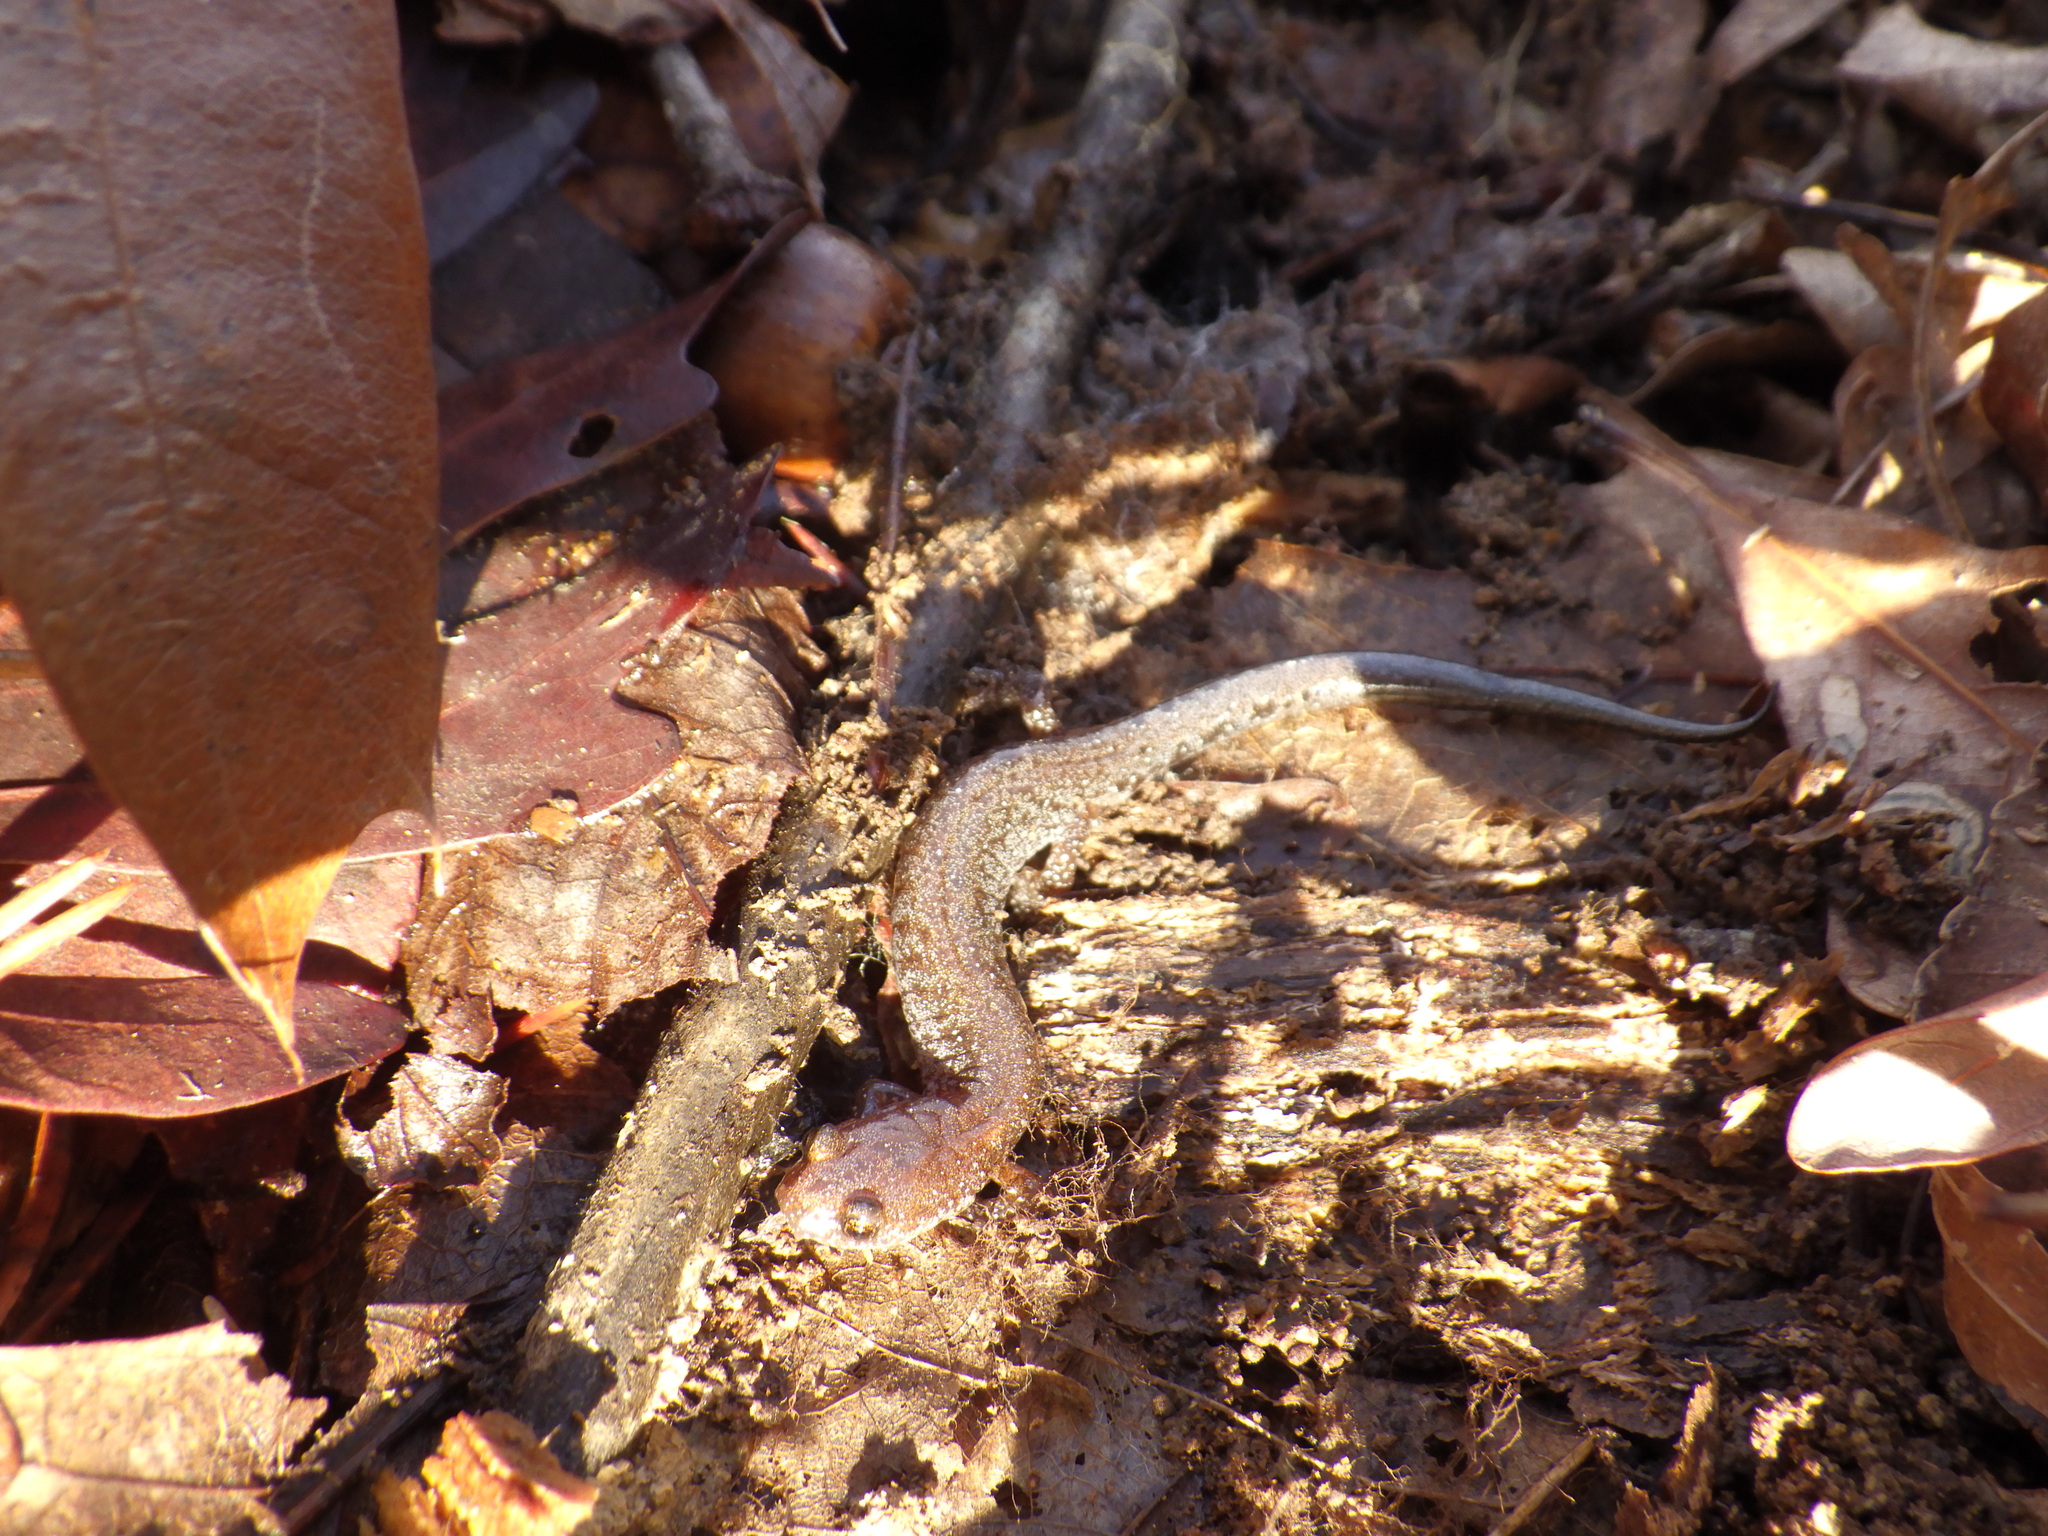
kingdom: Animalia
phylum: Chordata
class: Amphibia
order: Caudata
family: Plethodontidae
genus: Plethodon
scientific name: Plethodon dorsalis
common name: Northern zigzag salamander
